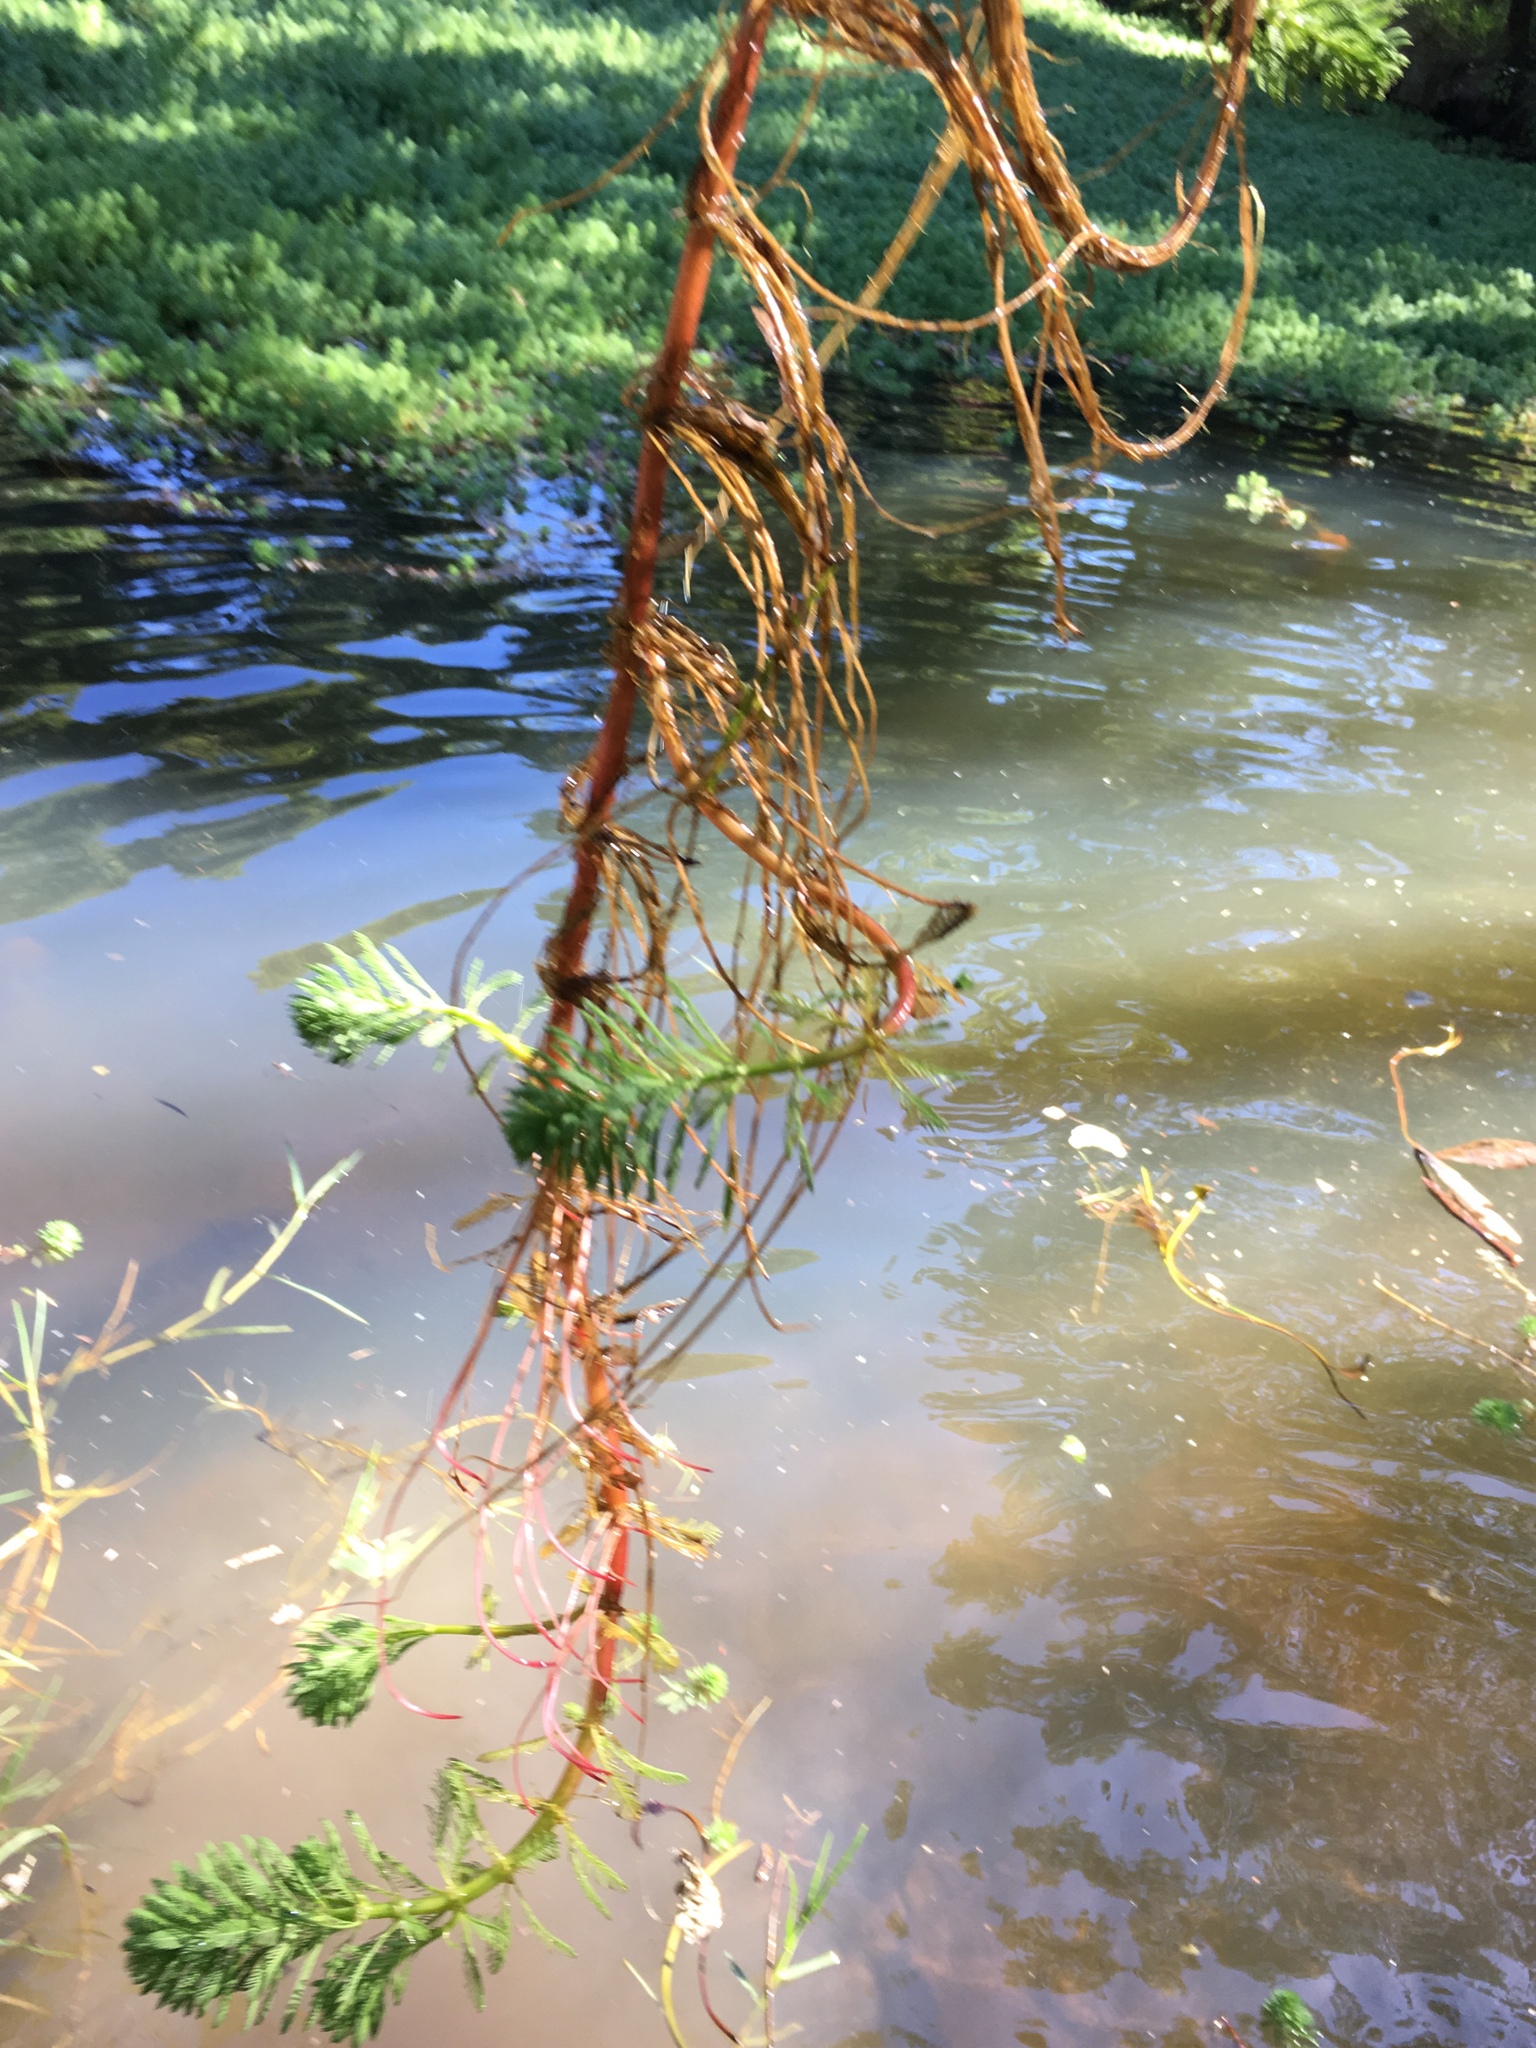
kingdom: Plantae
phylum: Tracheophyta
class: Magnoliopsida
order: Saxifragales
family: Haloragaceae
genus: Myriophyllum
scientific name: Myriophyllum aquaticum
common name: Parrot's feather
